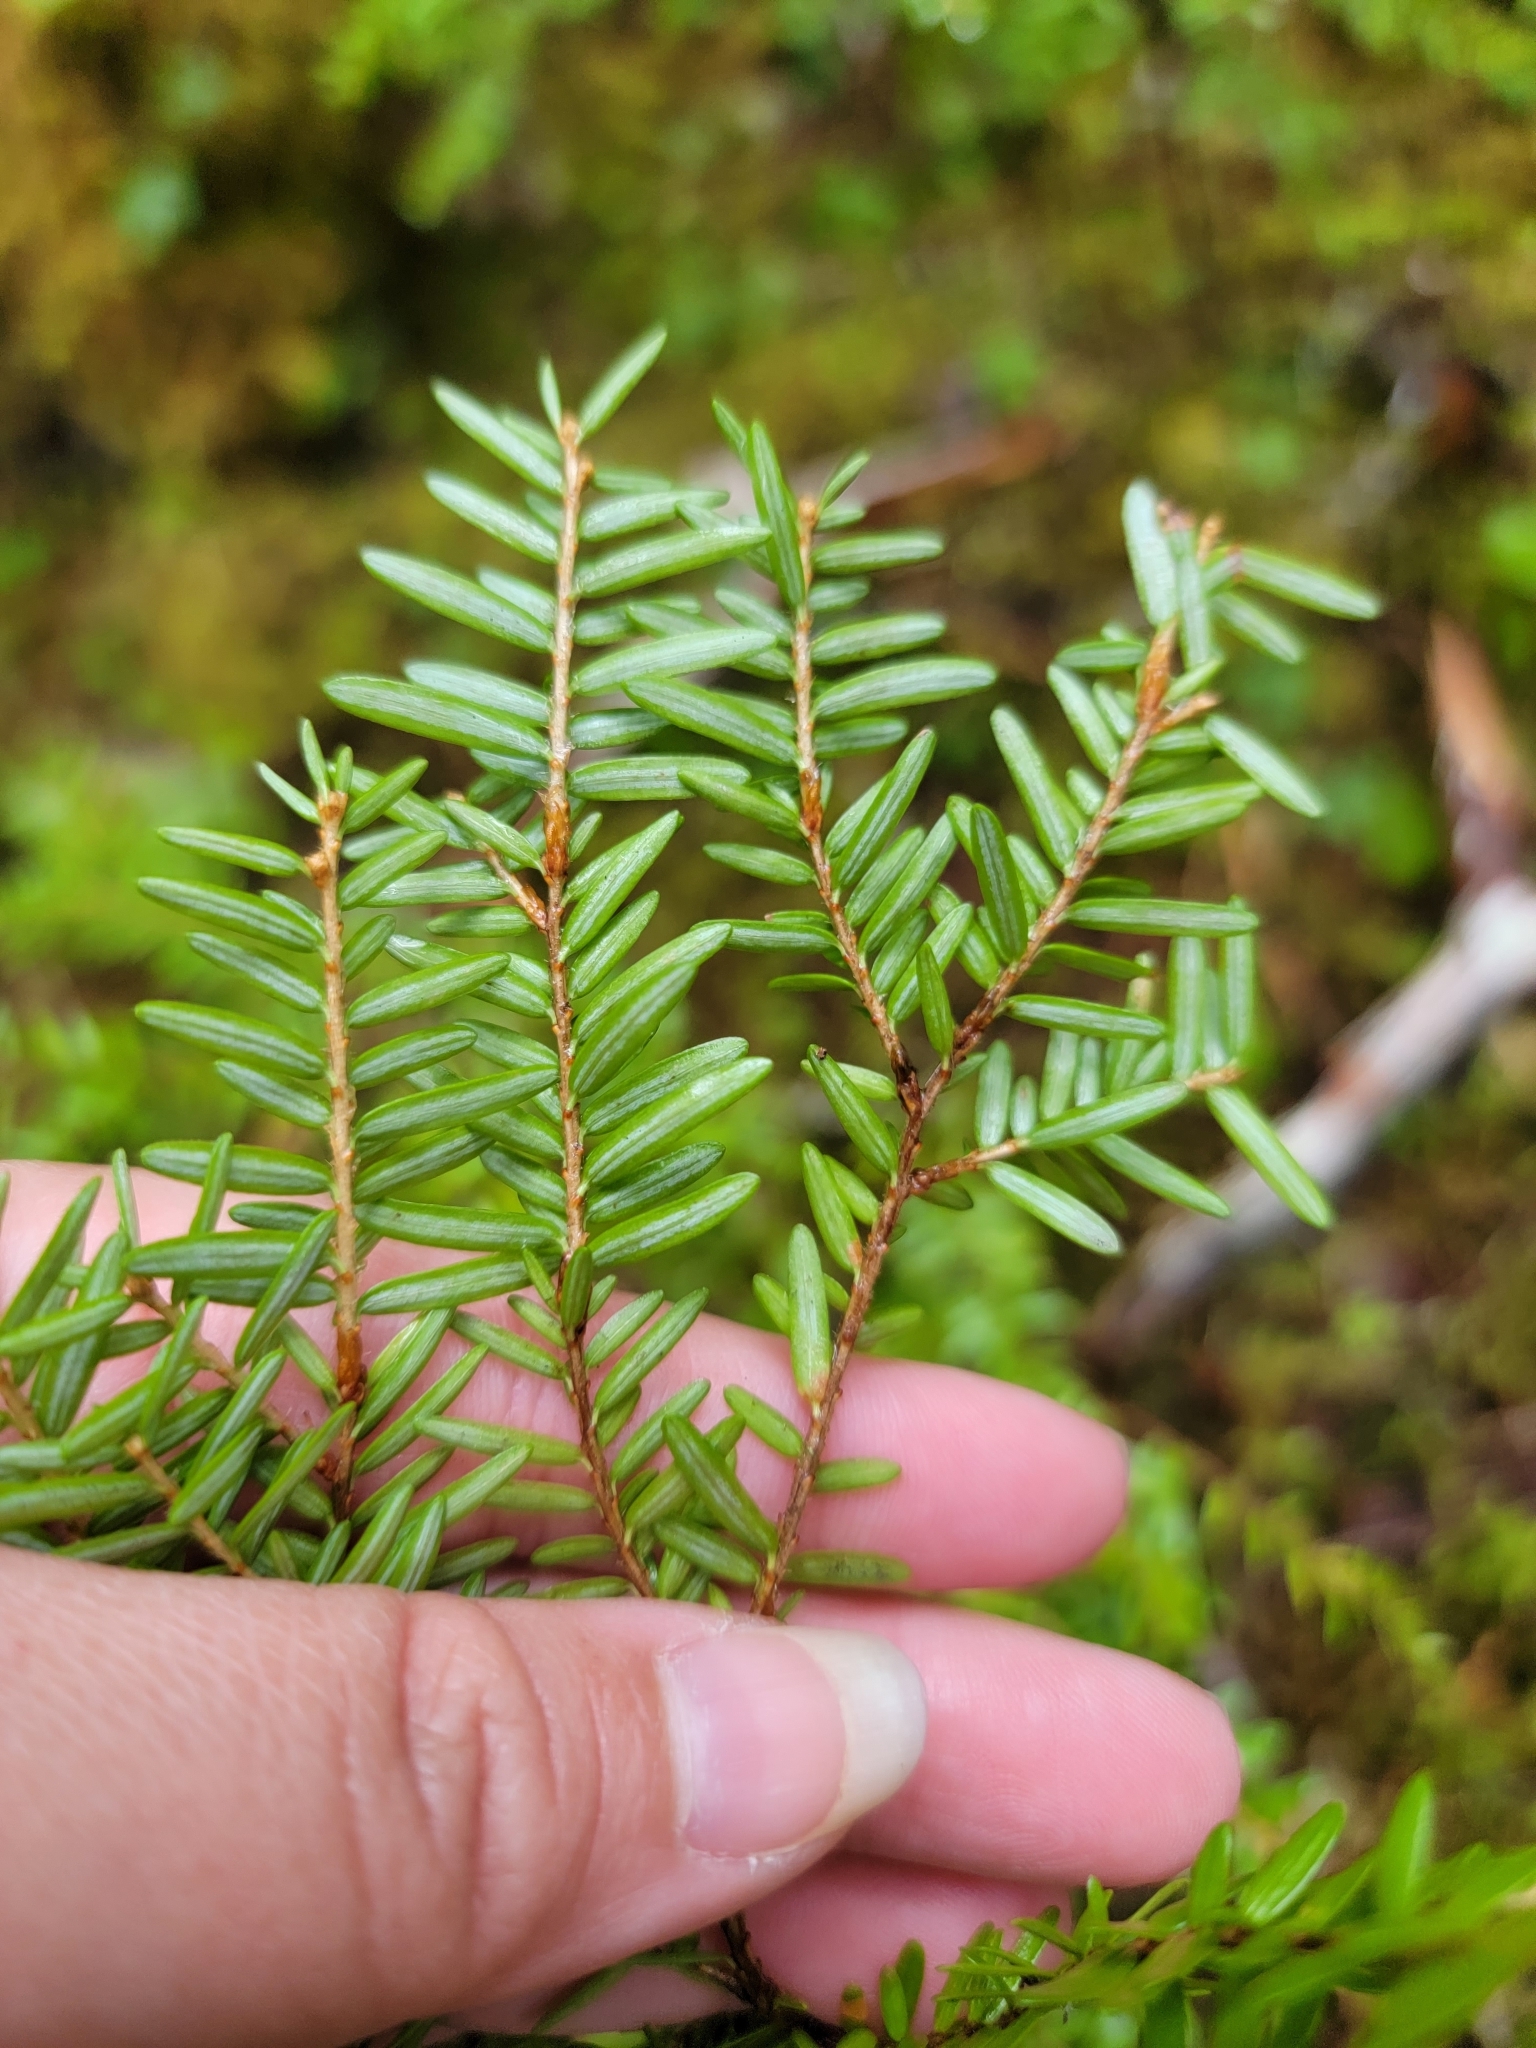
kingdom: Plantae
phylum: Tracheophyta
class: Pinopsida
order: Pinales
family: Pinaceae
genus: Tsuga
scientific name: Tsuga heterophylla
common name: Western hemlock
